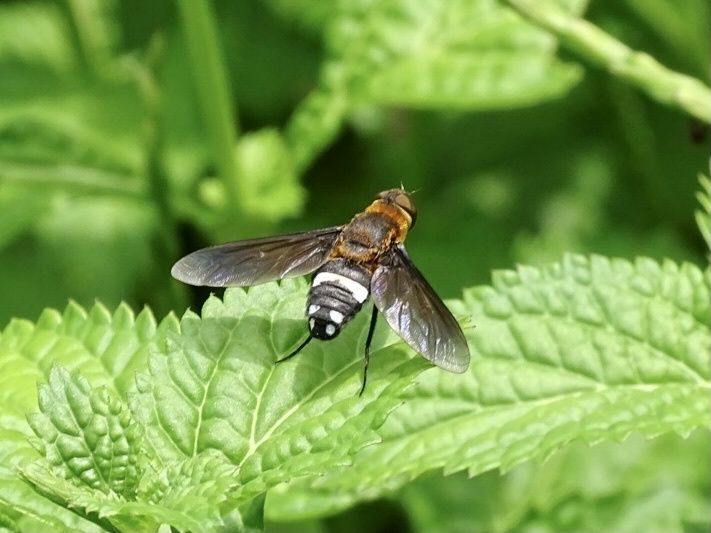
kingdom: Animalia
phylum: Arthropoda
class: Insecta
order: Diptera
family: Bombyliidae
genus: Ligyra
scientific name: Ligyra tantalus
